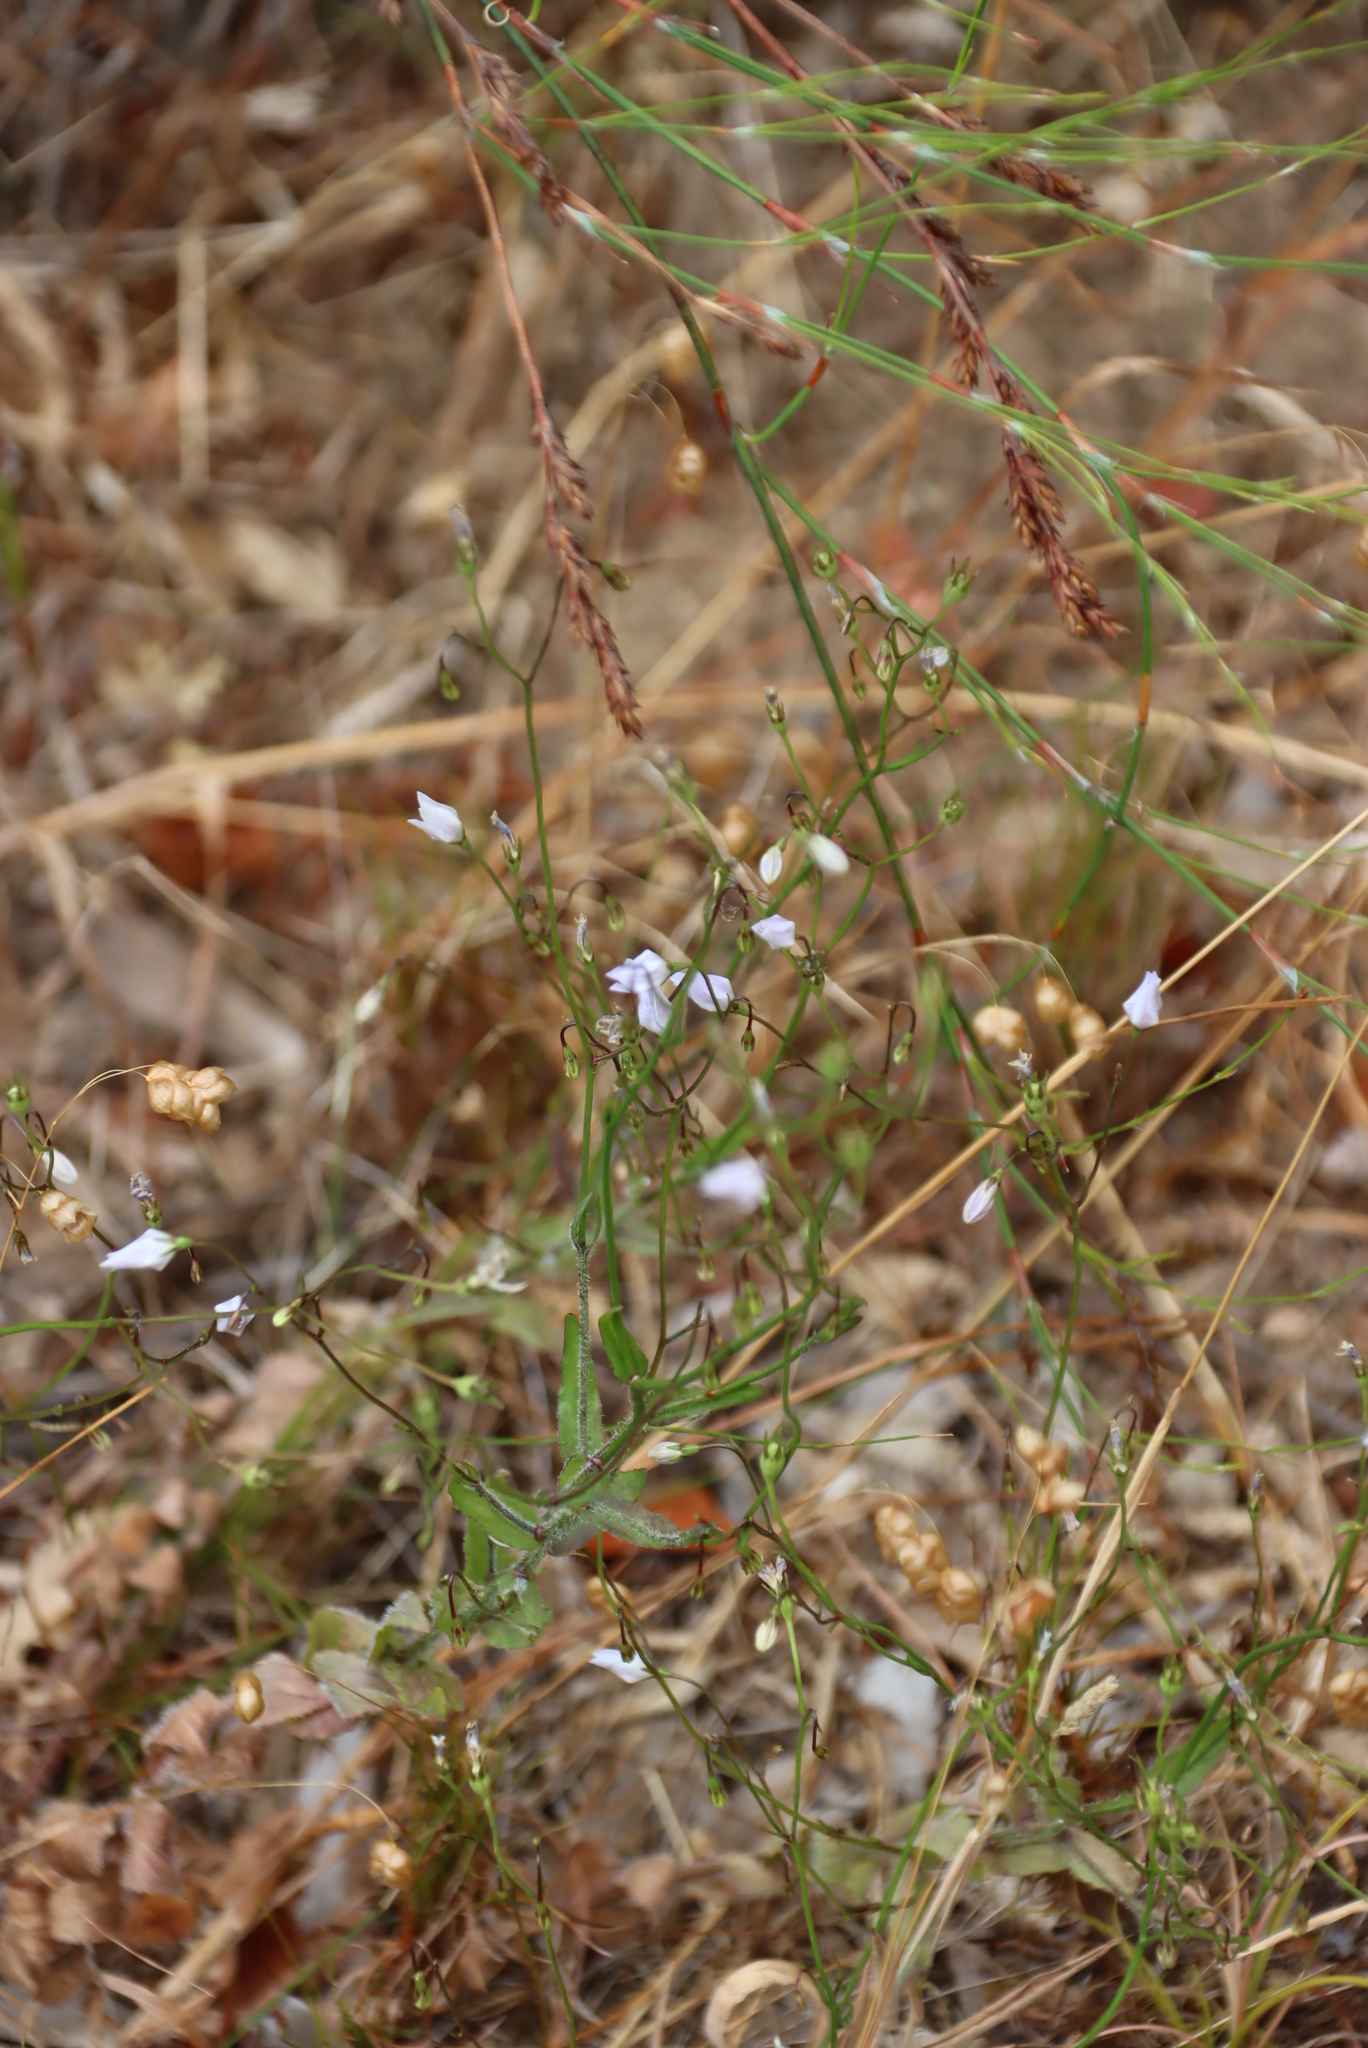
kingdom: Plantae
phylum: Tracheophyta
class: Magnoliopsida
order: Asterales
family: Campanulaceae
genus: Wahlenbergia
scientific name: Wahlenbergia obovata
